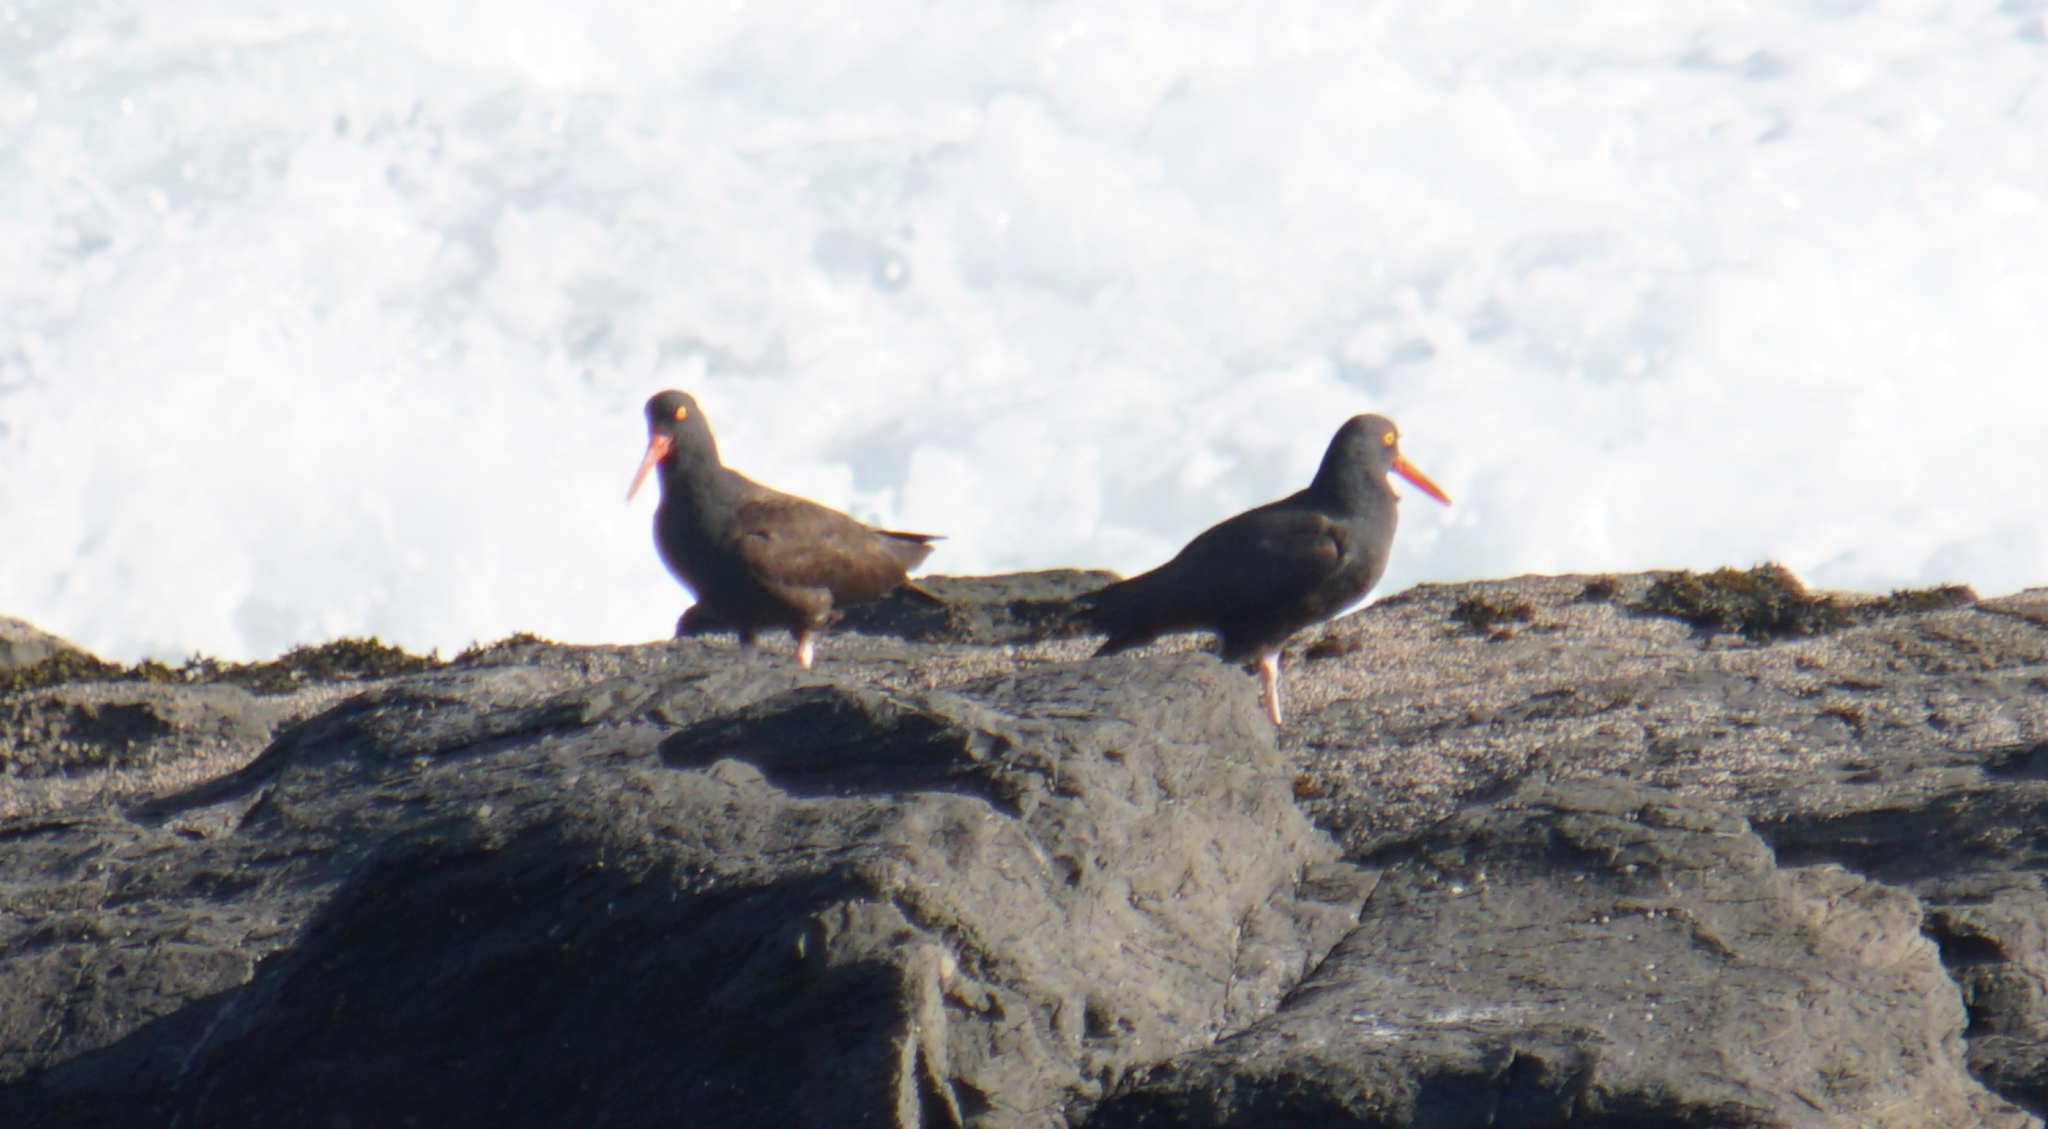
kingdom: Animalia
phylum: Chordata
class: Aves
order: Charadriiformes
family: Haematopodidae
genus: Haematopus
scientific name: Haematopus bachmani
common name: Black oystercatcher
